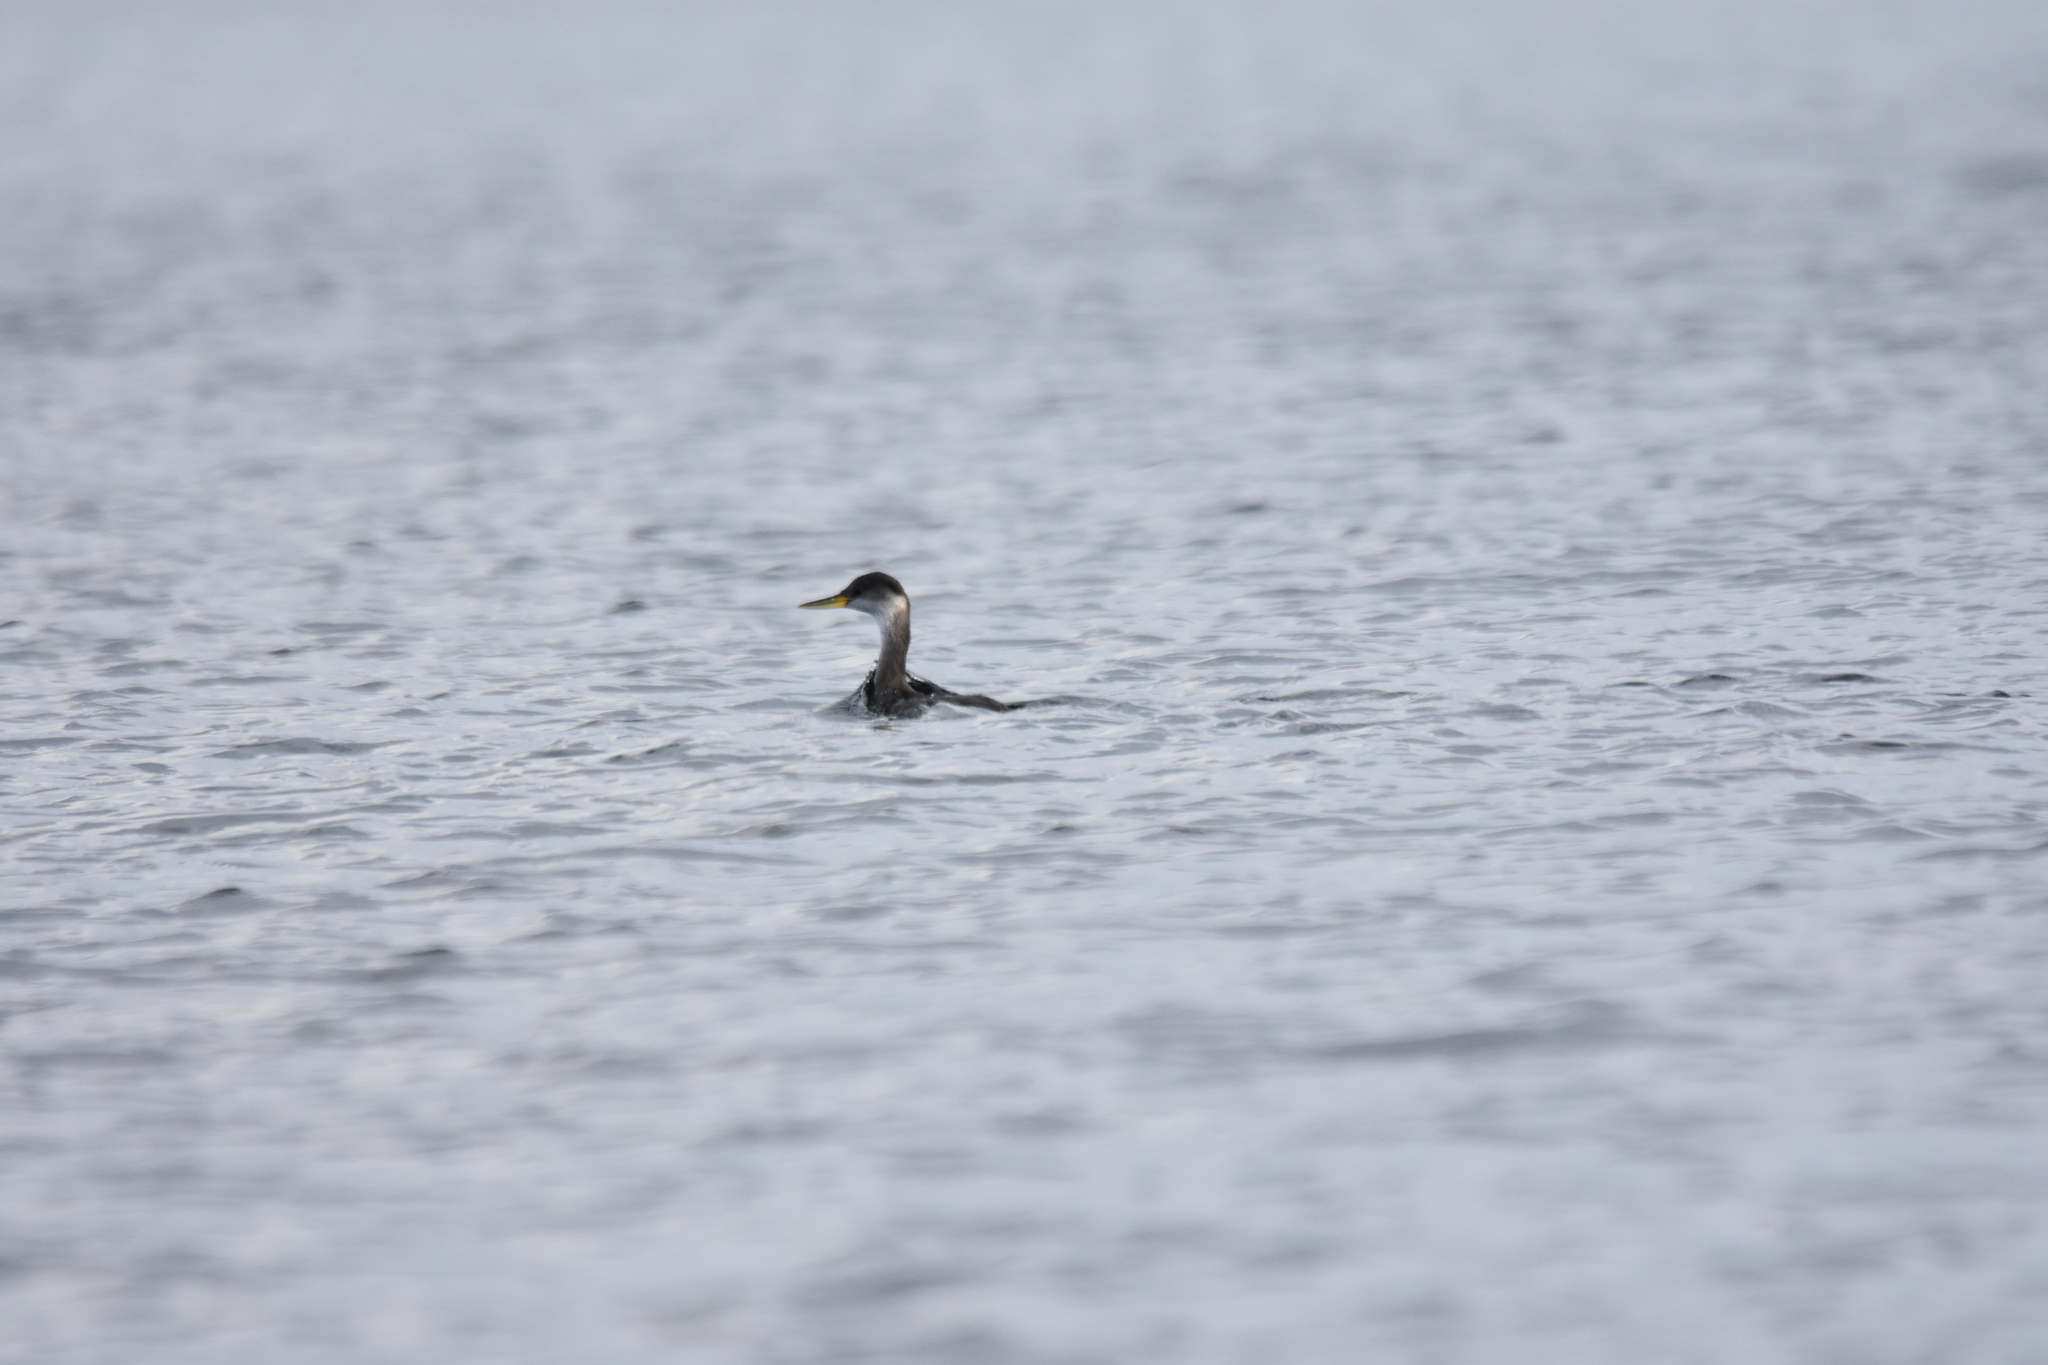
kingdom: Animalia
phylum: Chordata
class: Aves
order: Podicipediformes
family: Podicipedidae
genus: Podiceps
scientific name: Podiceps grisegena
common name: Red-necked grebe
